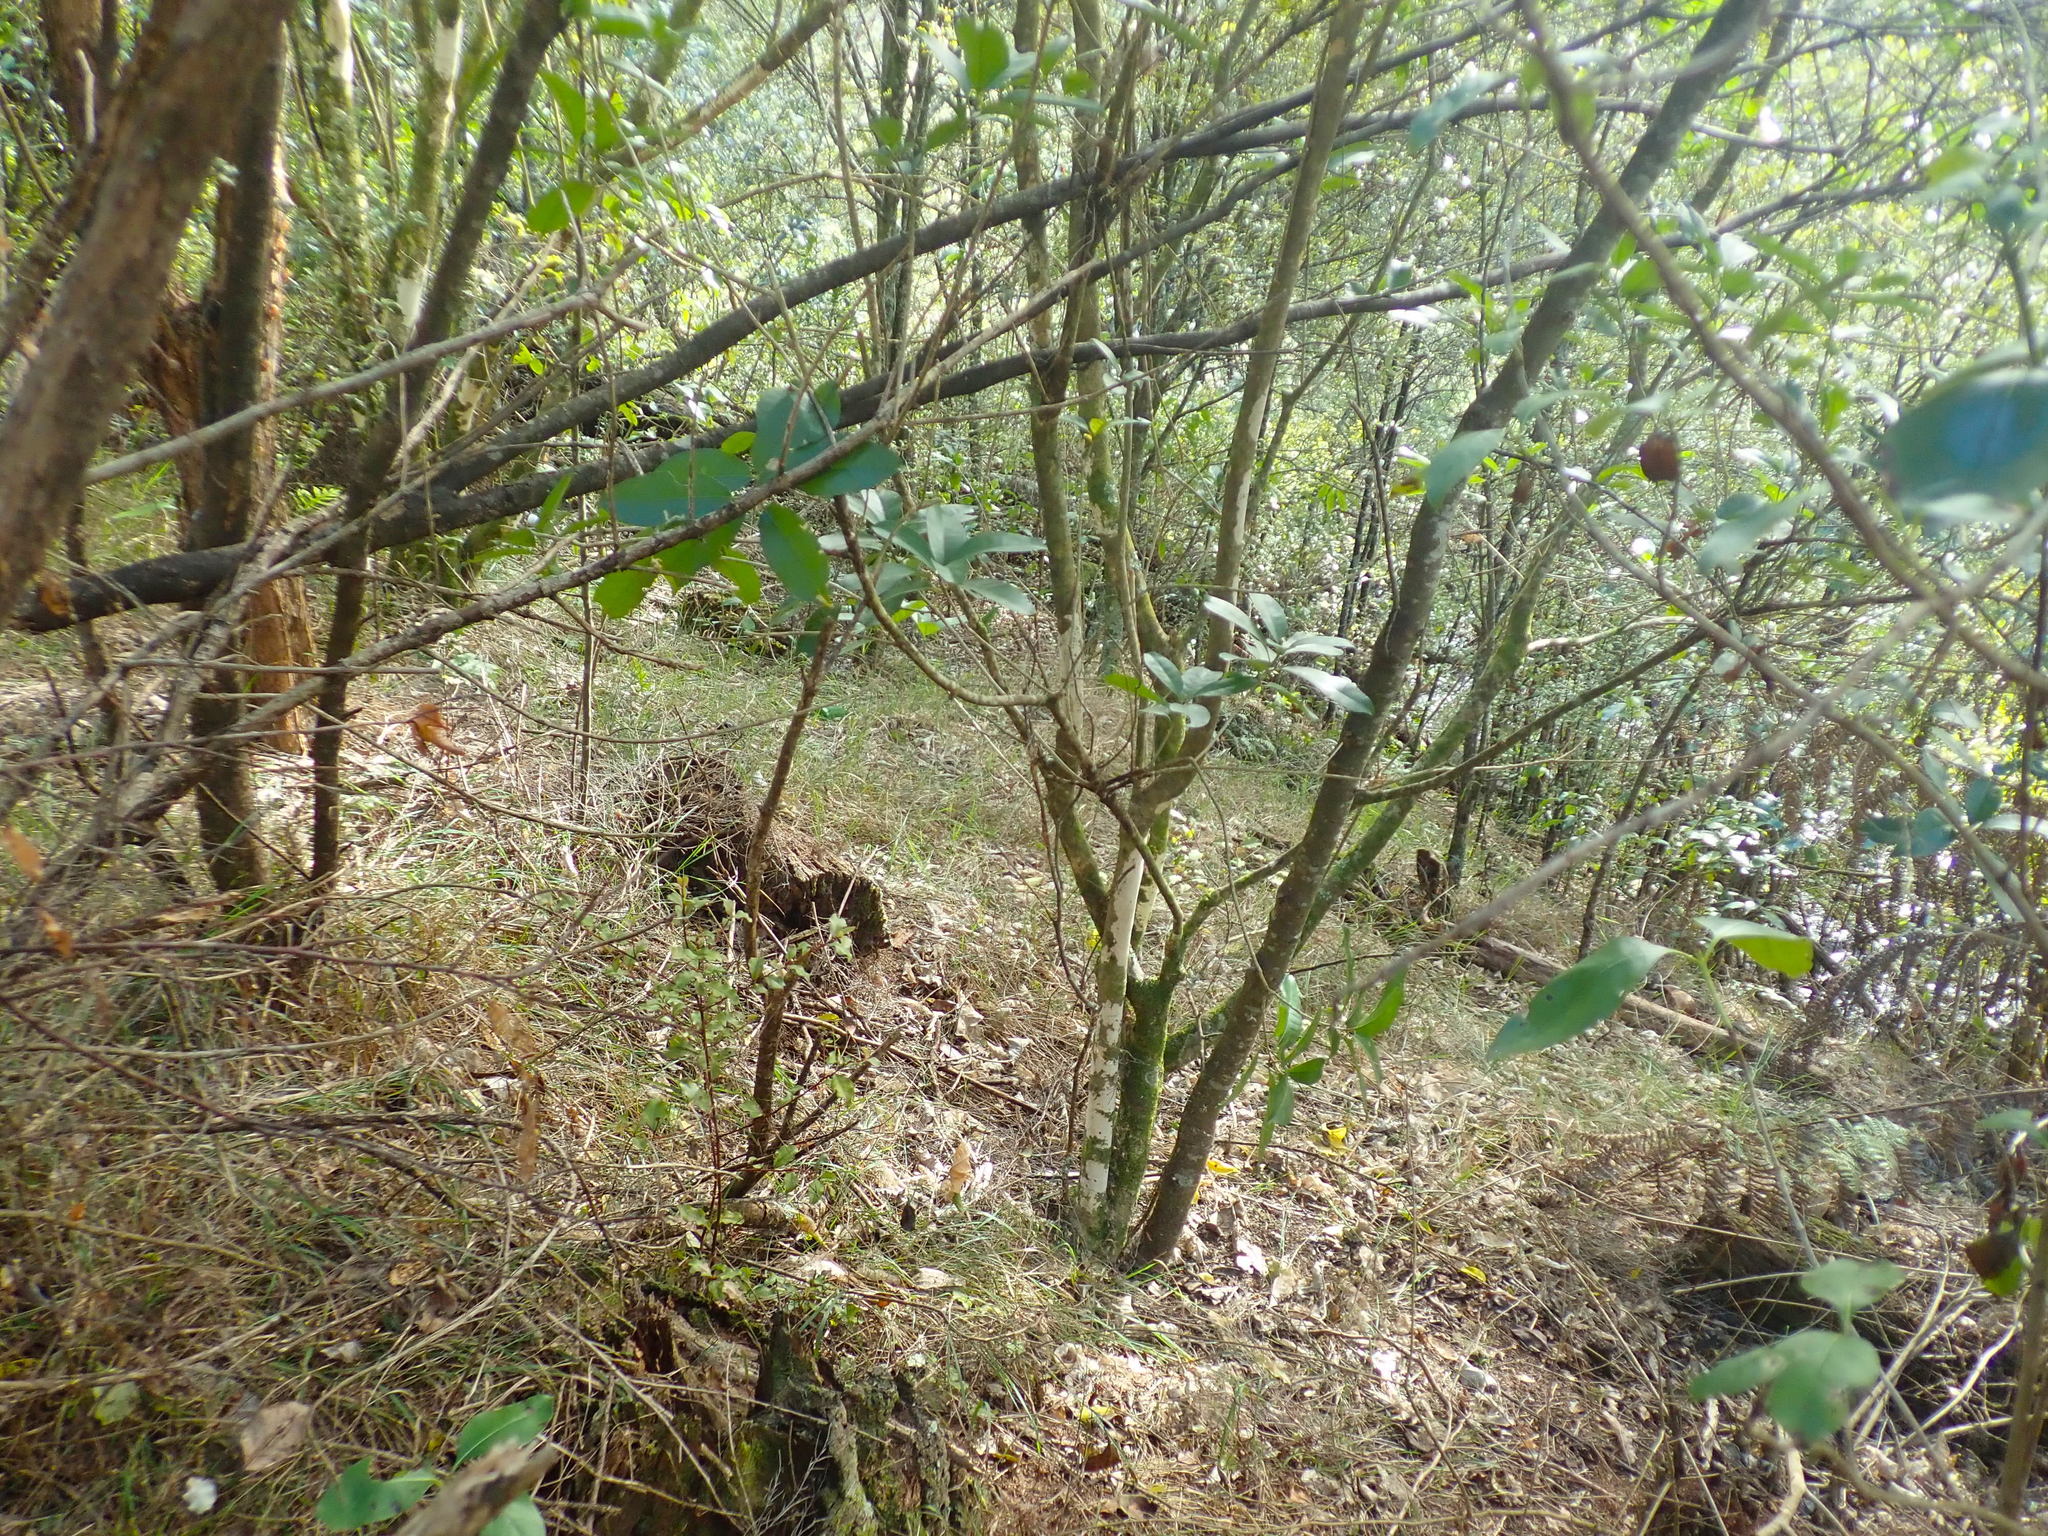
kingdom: Plantae
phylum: Tracheophyta
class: Liliopsida
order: Poales
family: Poaceae
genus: Microlaena
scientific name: Microlaena stipoides
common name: Meadow ricegrass
